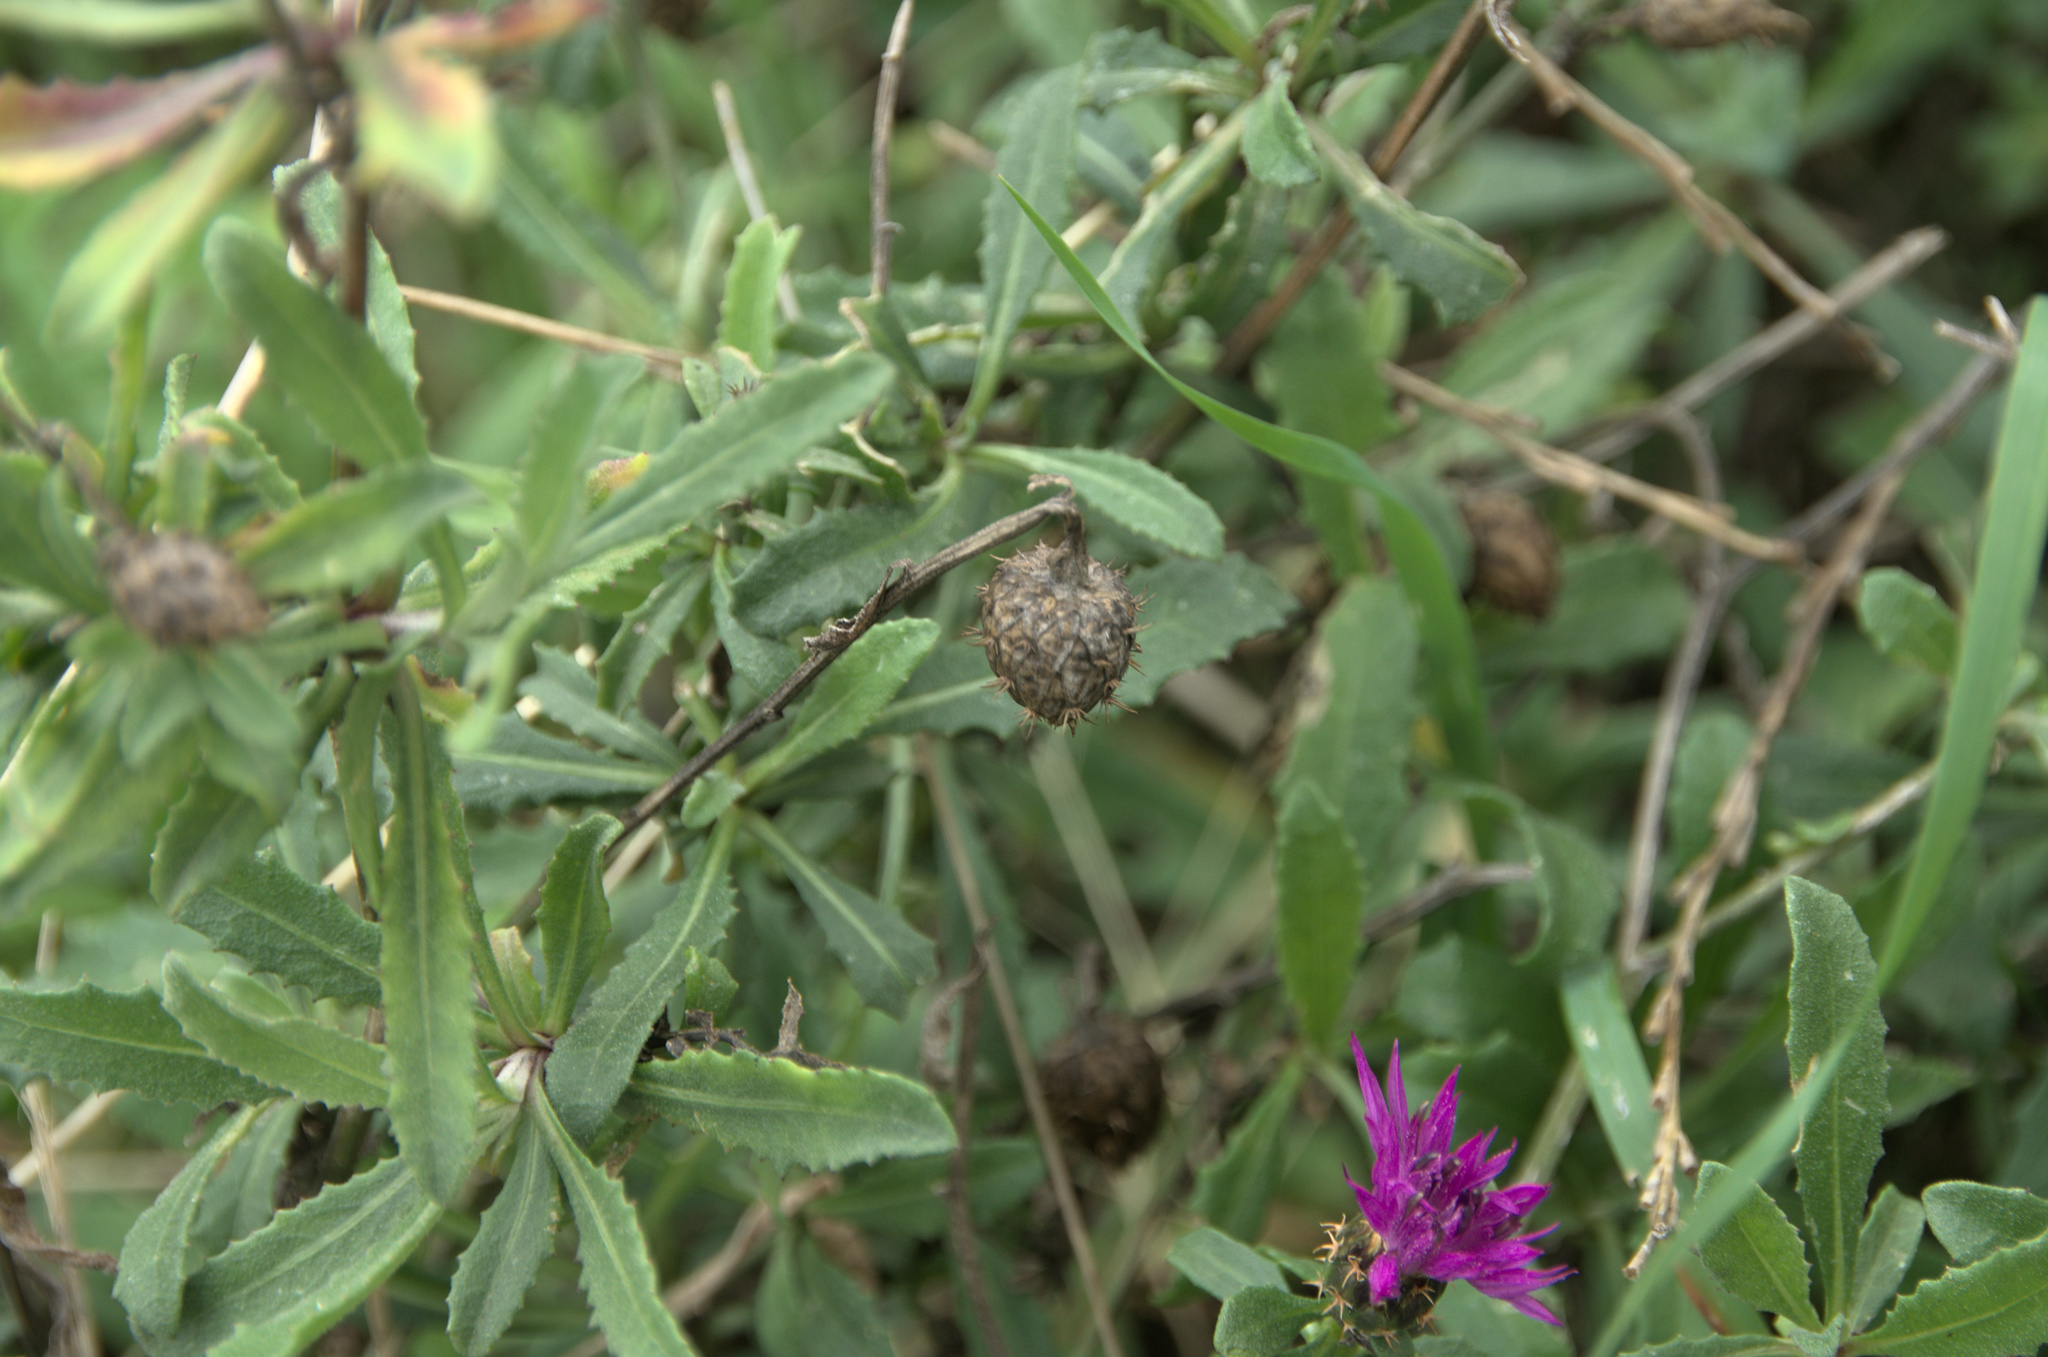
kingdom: Plantae
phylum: Tracheophyta
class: Magnoliopsida
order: Asterales
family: Asteraceae
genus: Centaurea
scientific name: Centaurea aspera
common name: Rough star-thistle
